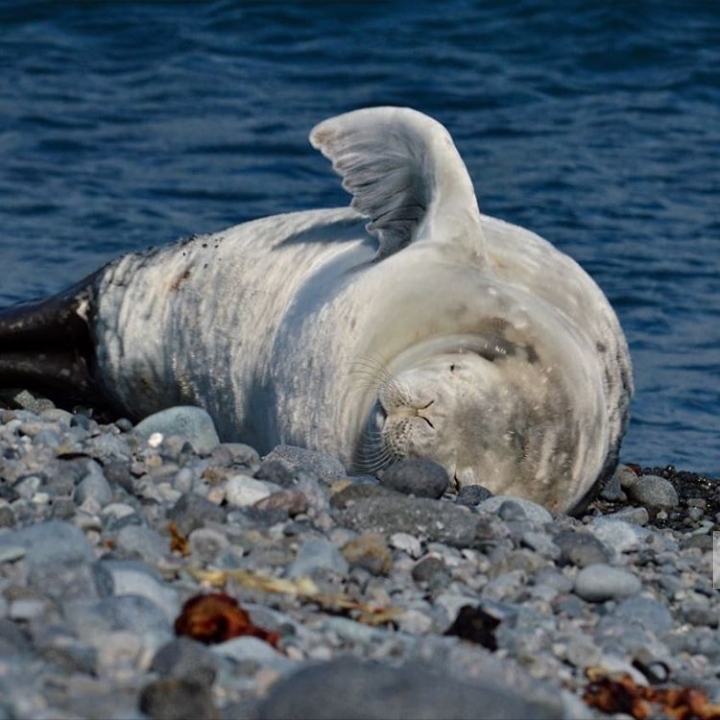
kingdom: Animalia
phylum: Chordata
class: Mammalia
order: Carnivora
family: Phocidae
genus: Lobodon
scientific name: Lobodon carcinophaga
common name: Crabeater seal
